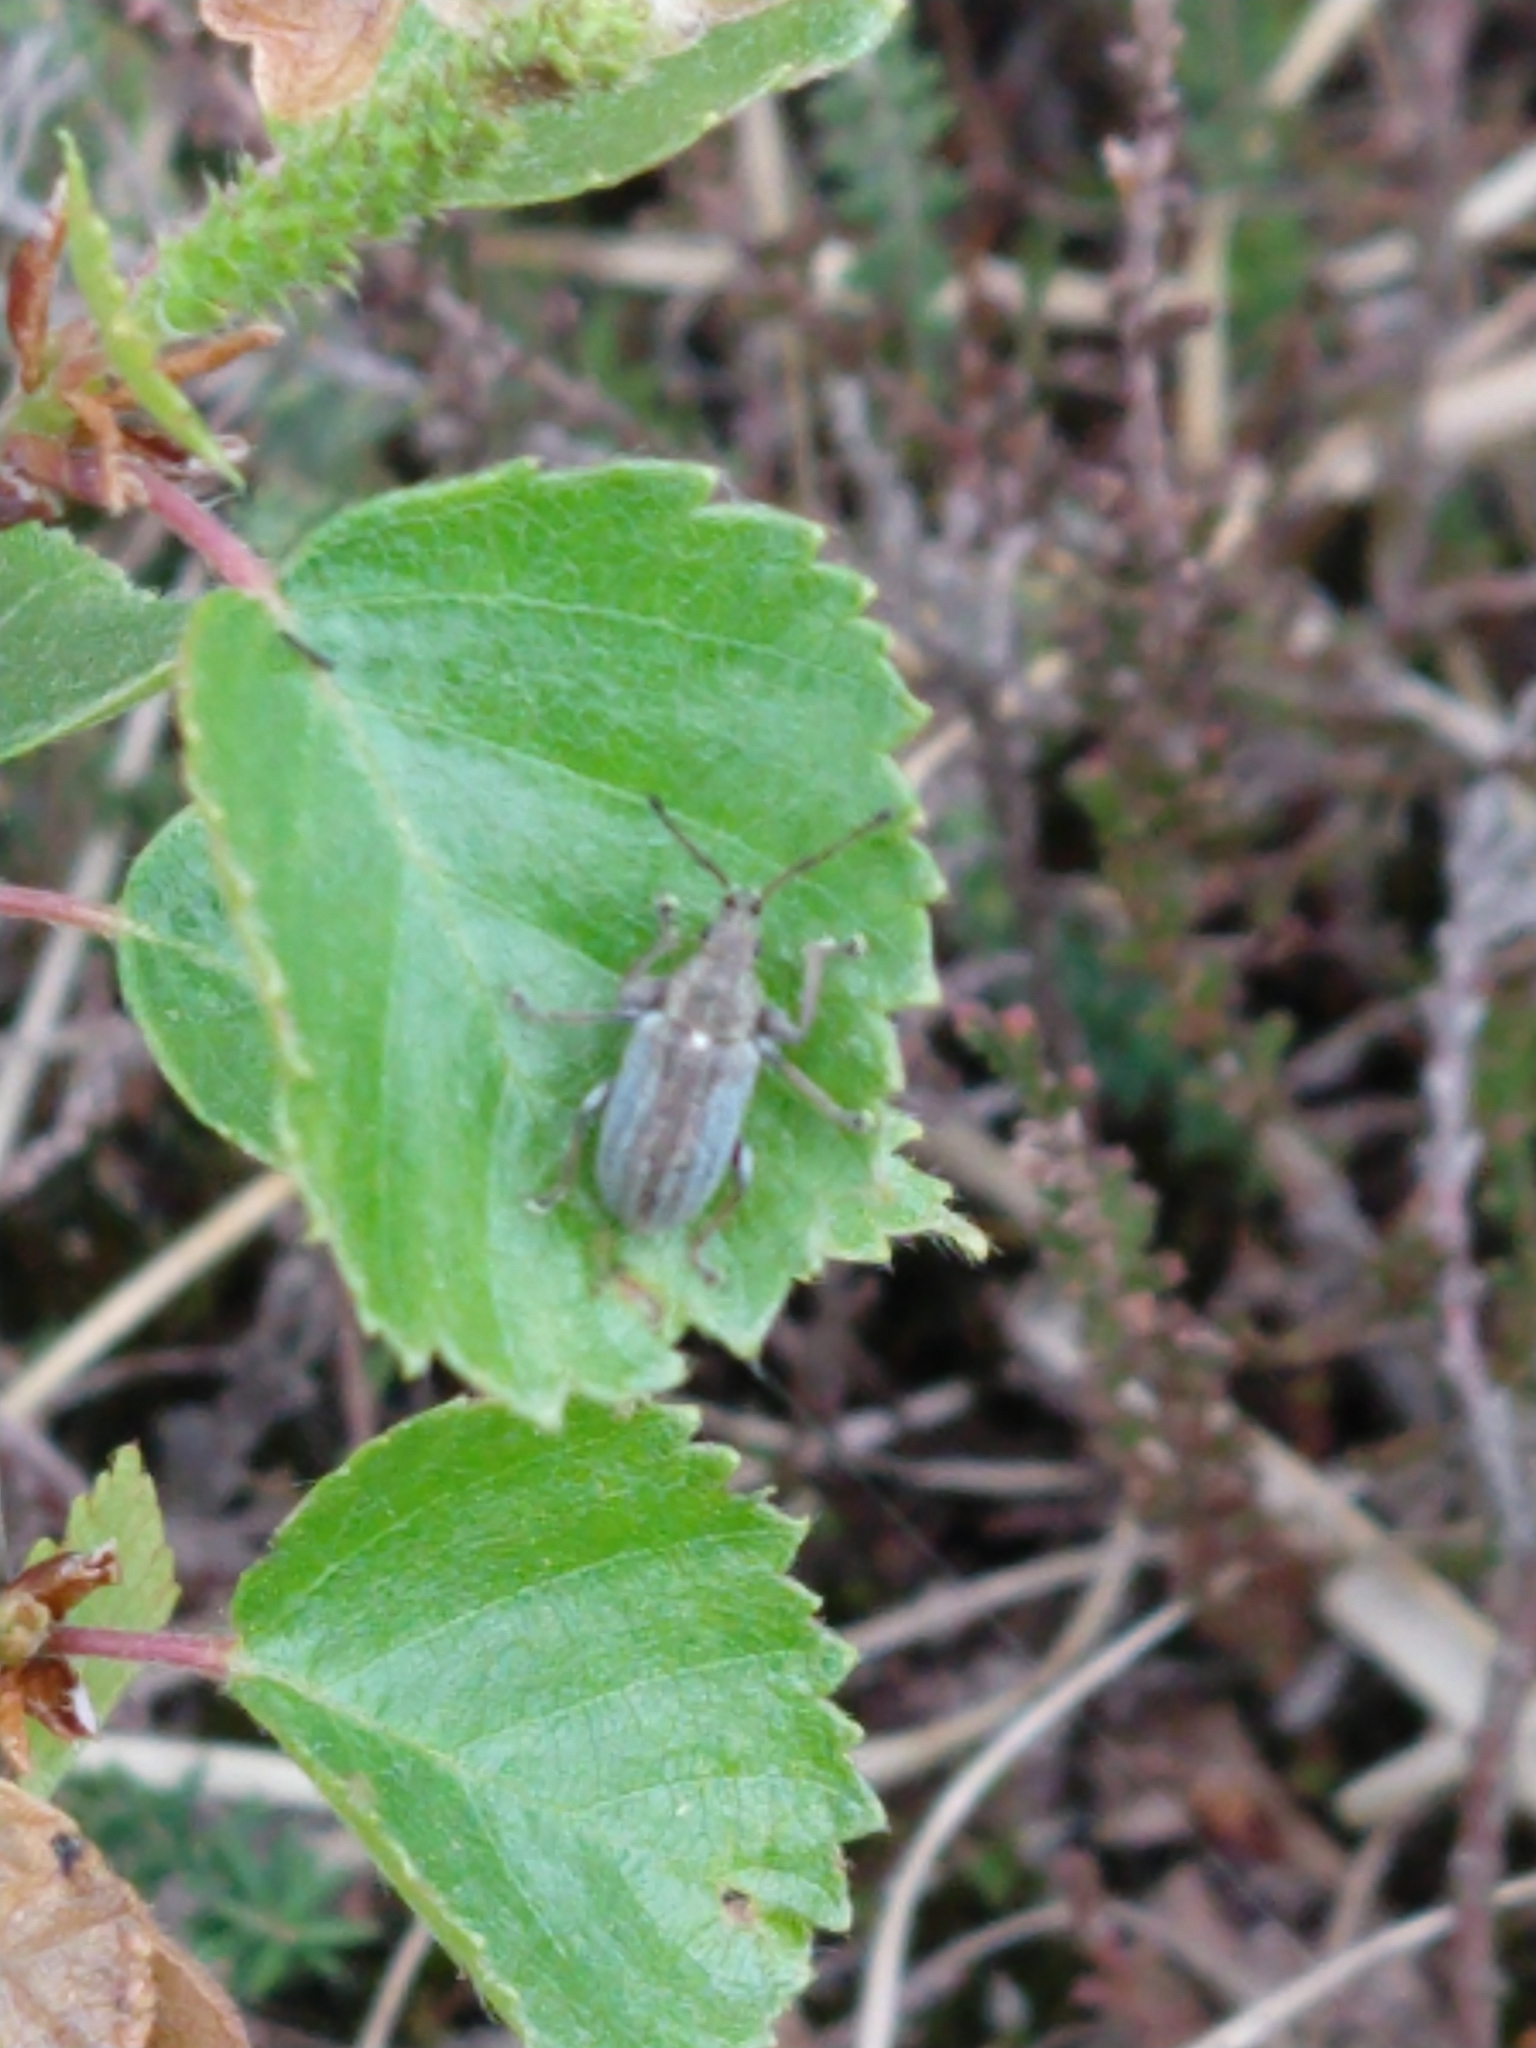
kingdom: Animalia
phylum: Arthropoda
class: Insecta
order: Coleoptera
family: Curculionidae
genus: Phyllobius
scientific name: Phyllobius pyri
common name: Common leaf weevil
